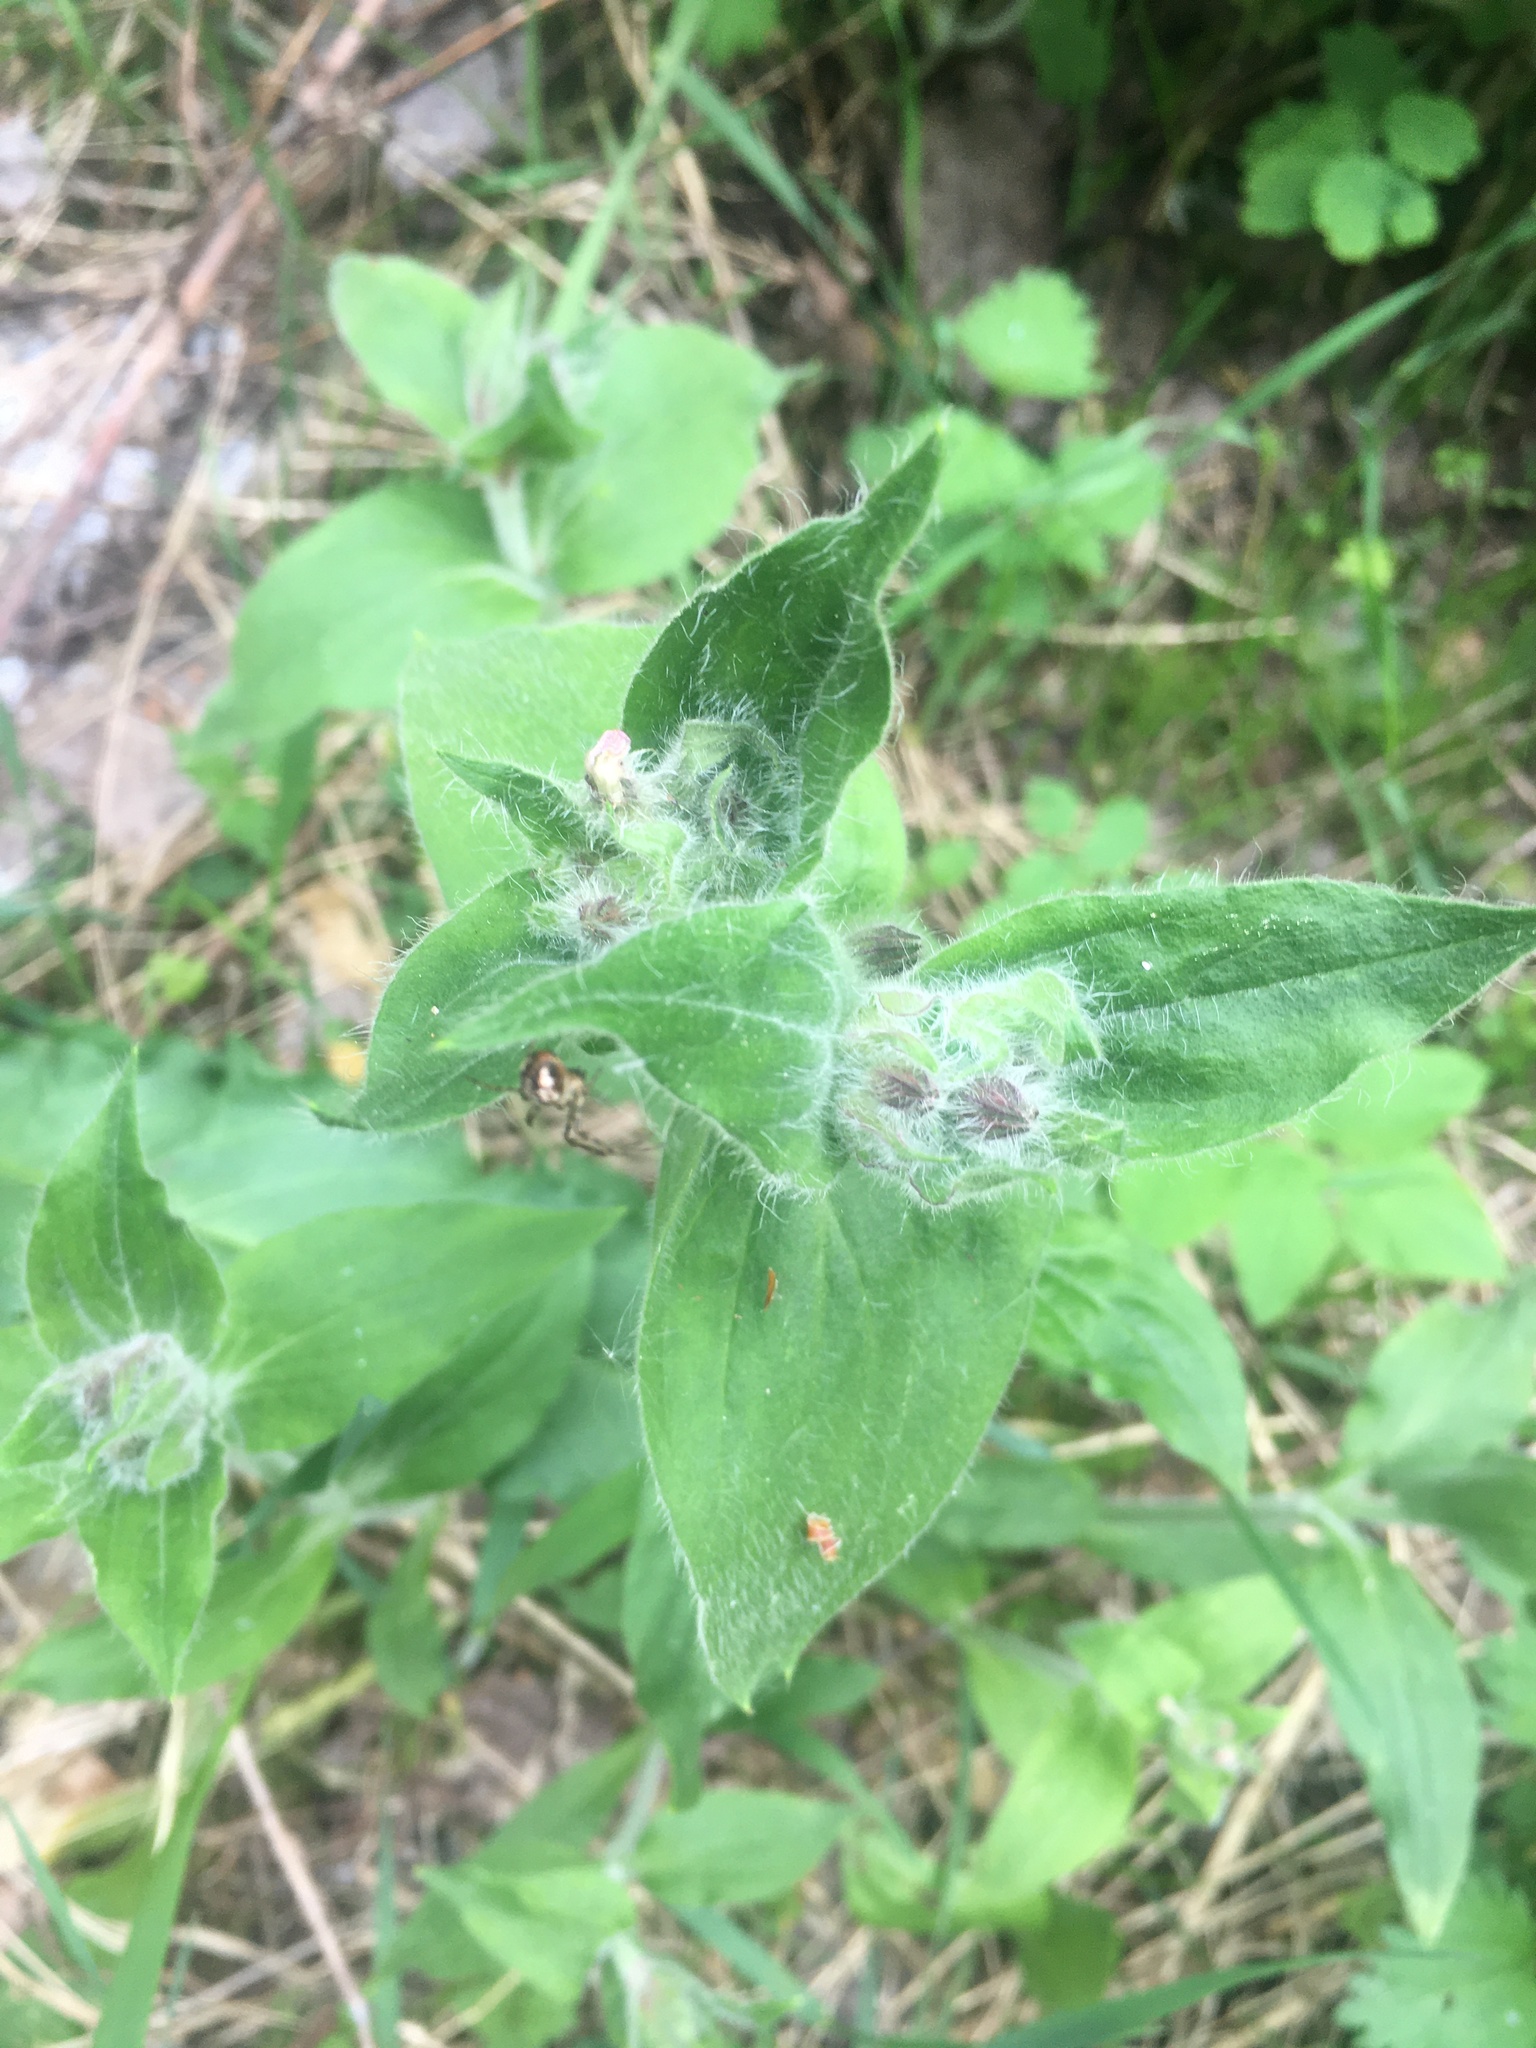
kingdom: Plantae
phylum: Tracheophyta
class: Magnoliopsida
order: Caryophyllales
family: Caryophyllaceae
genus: Silene
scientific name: Silene dioica
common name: Red campion
